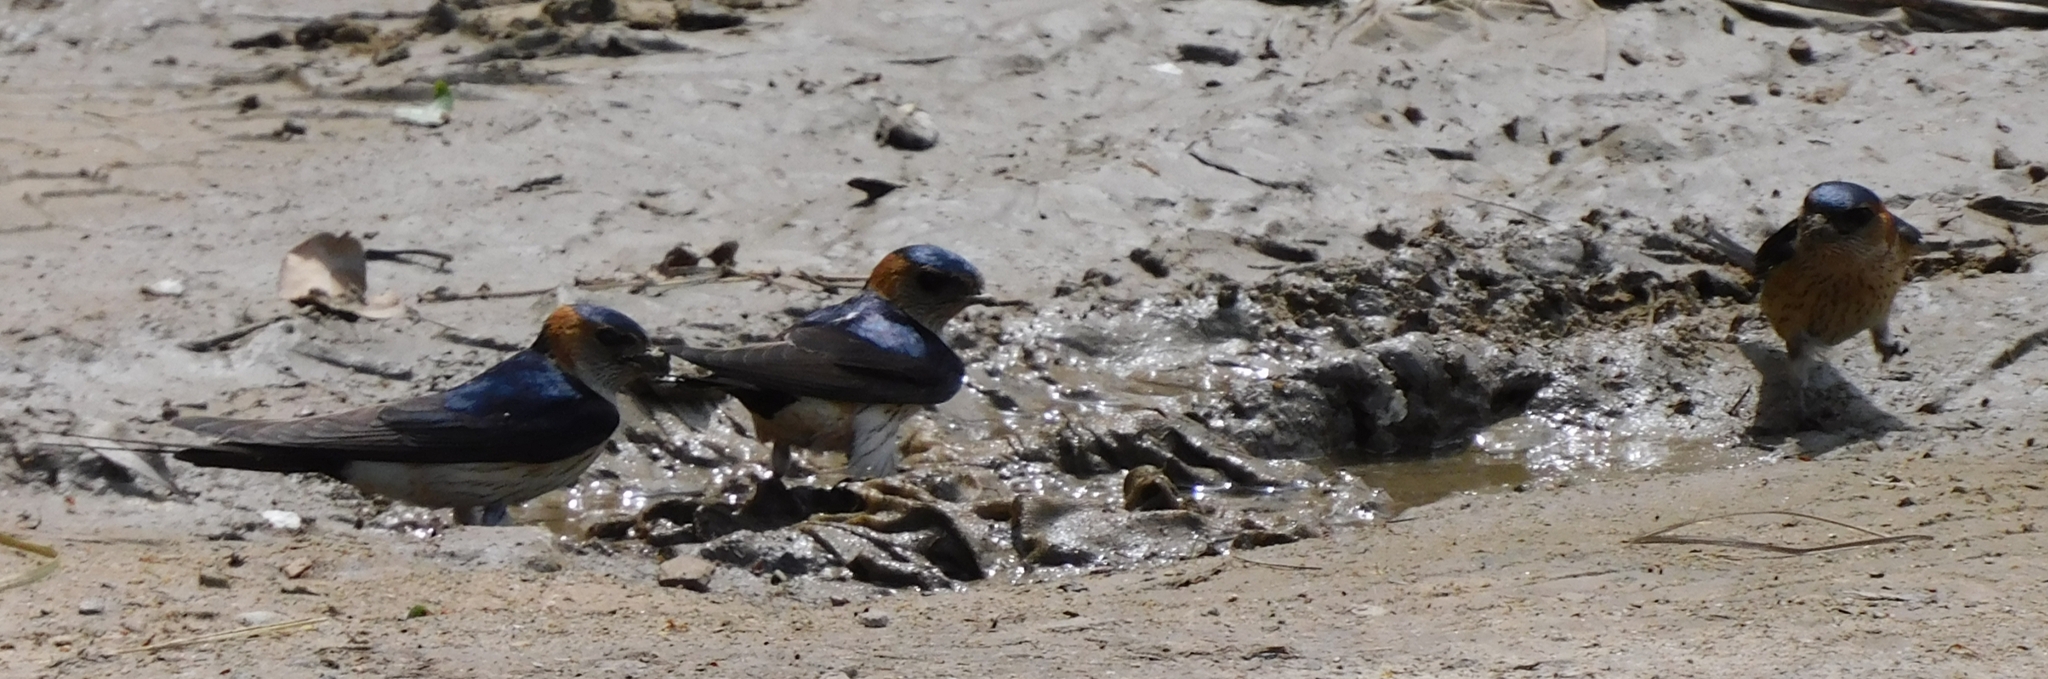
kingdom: Animalia
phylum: Chordata
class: Aves
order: Passeriformes
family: Hirundinidae
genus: Cecropis
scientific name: Cecropis daurica
